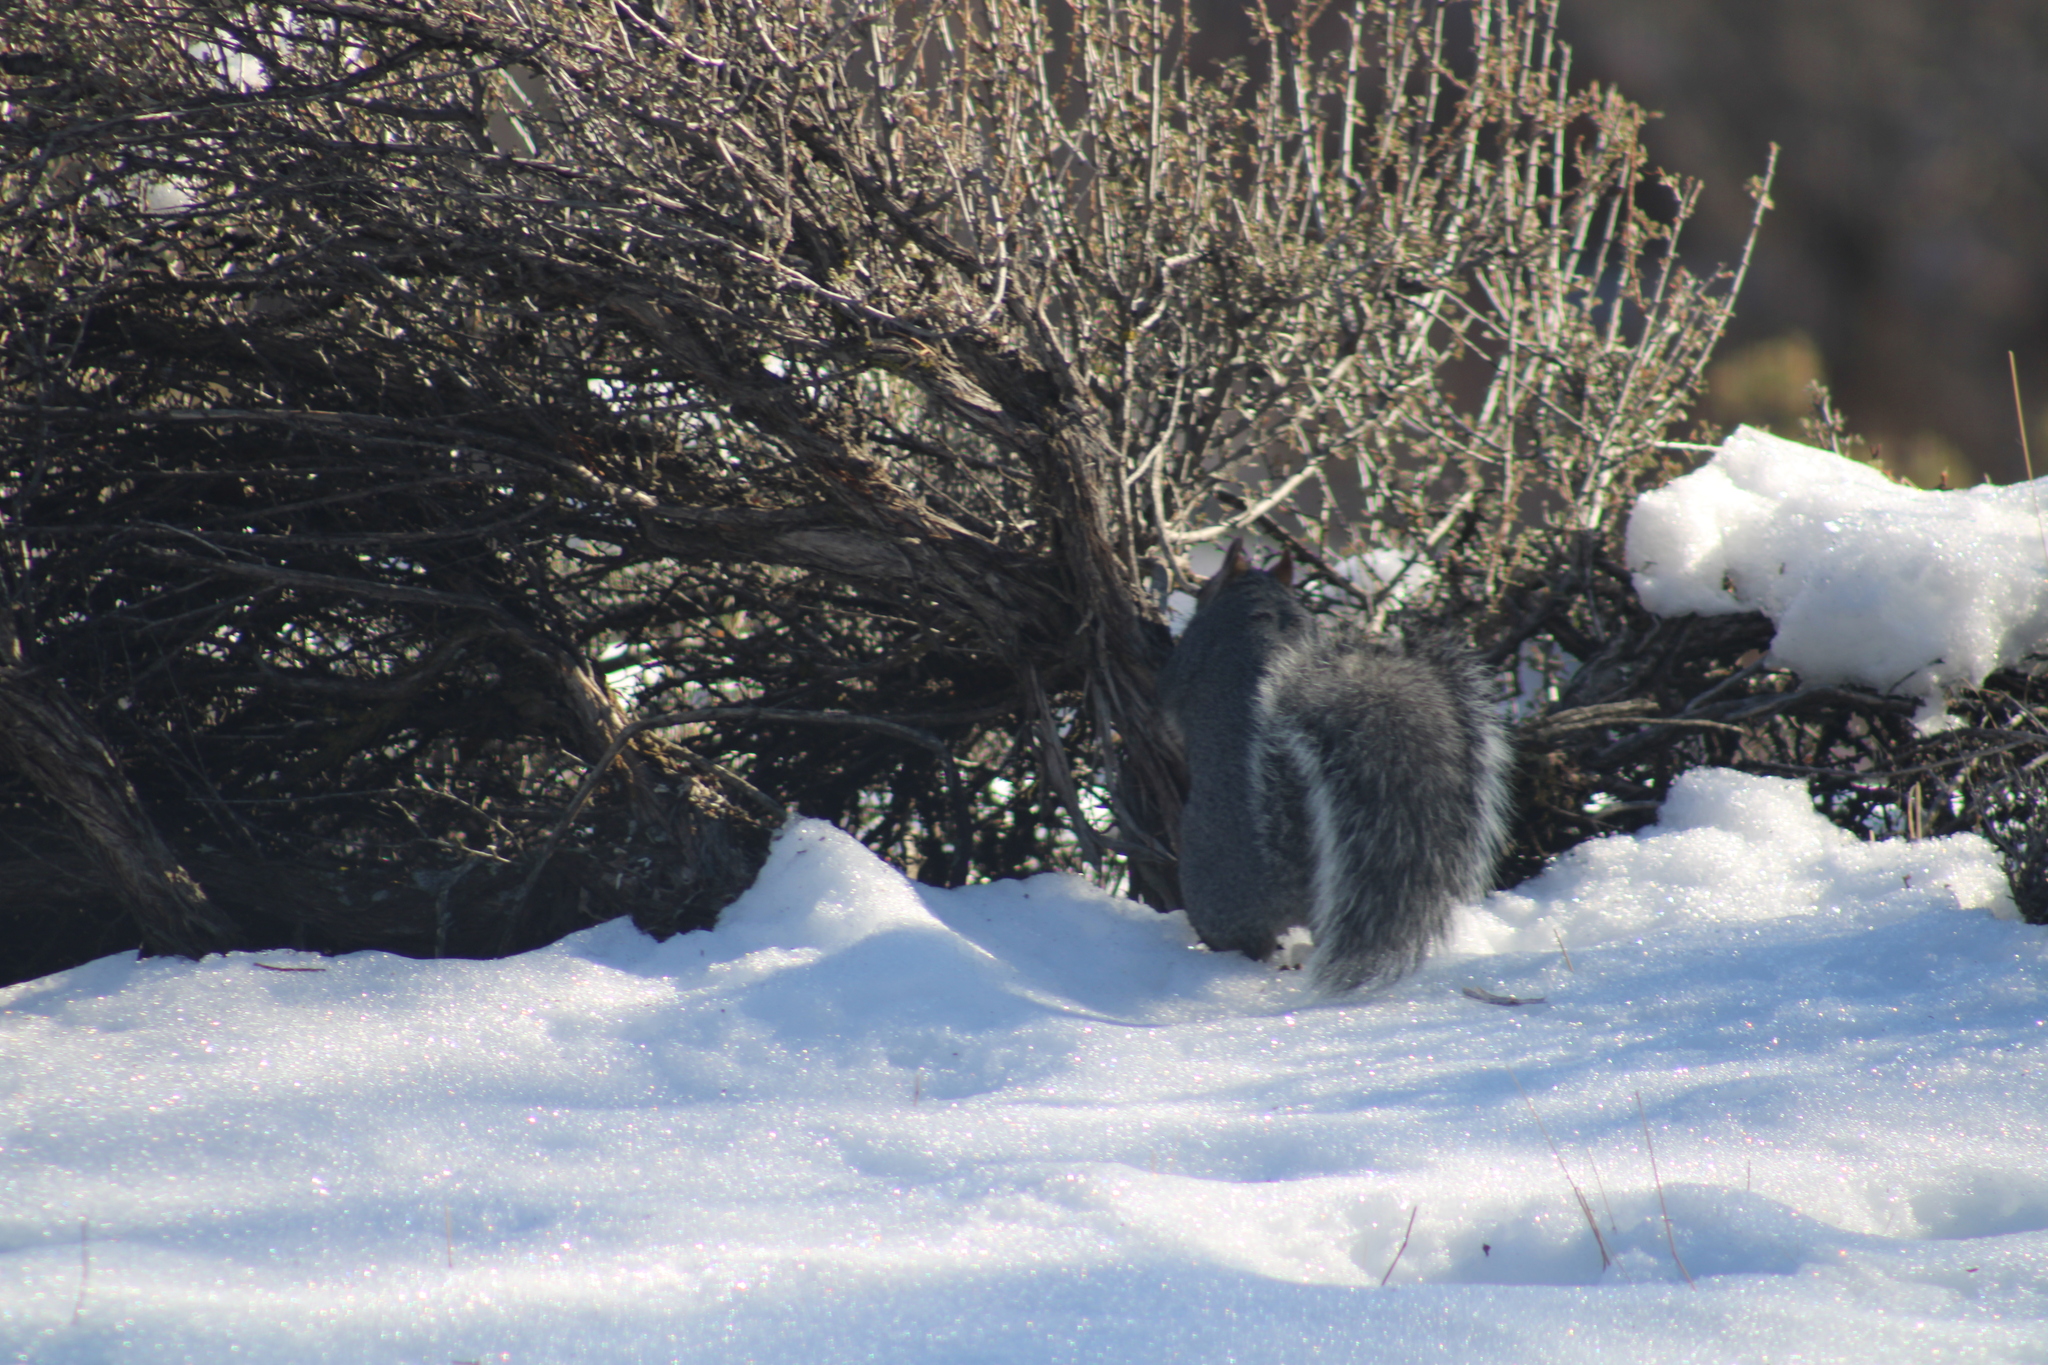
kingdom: Animalia
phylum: Chordata
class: Mammalia
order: Rodentia
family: Sciuridae
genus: Sciurus
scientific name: Sciurus griseus
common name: Western gray squirrel
